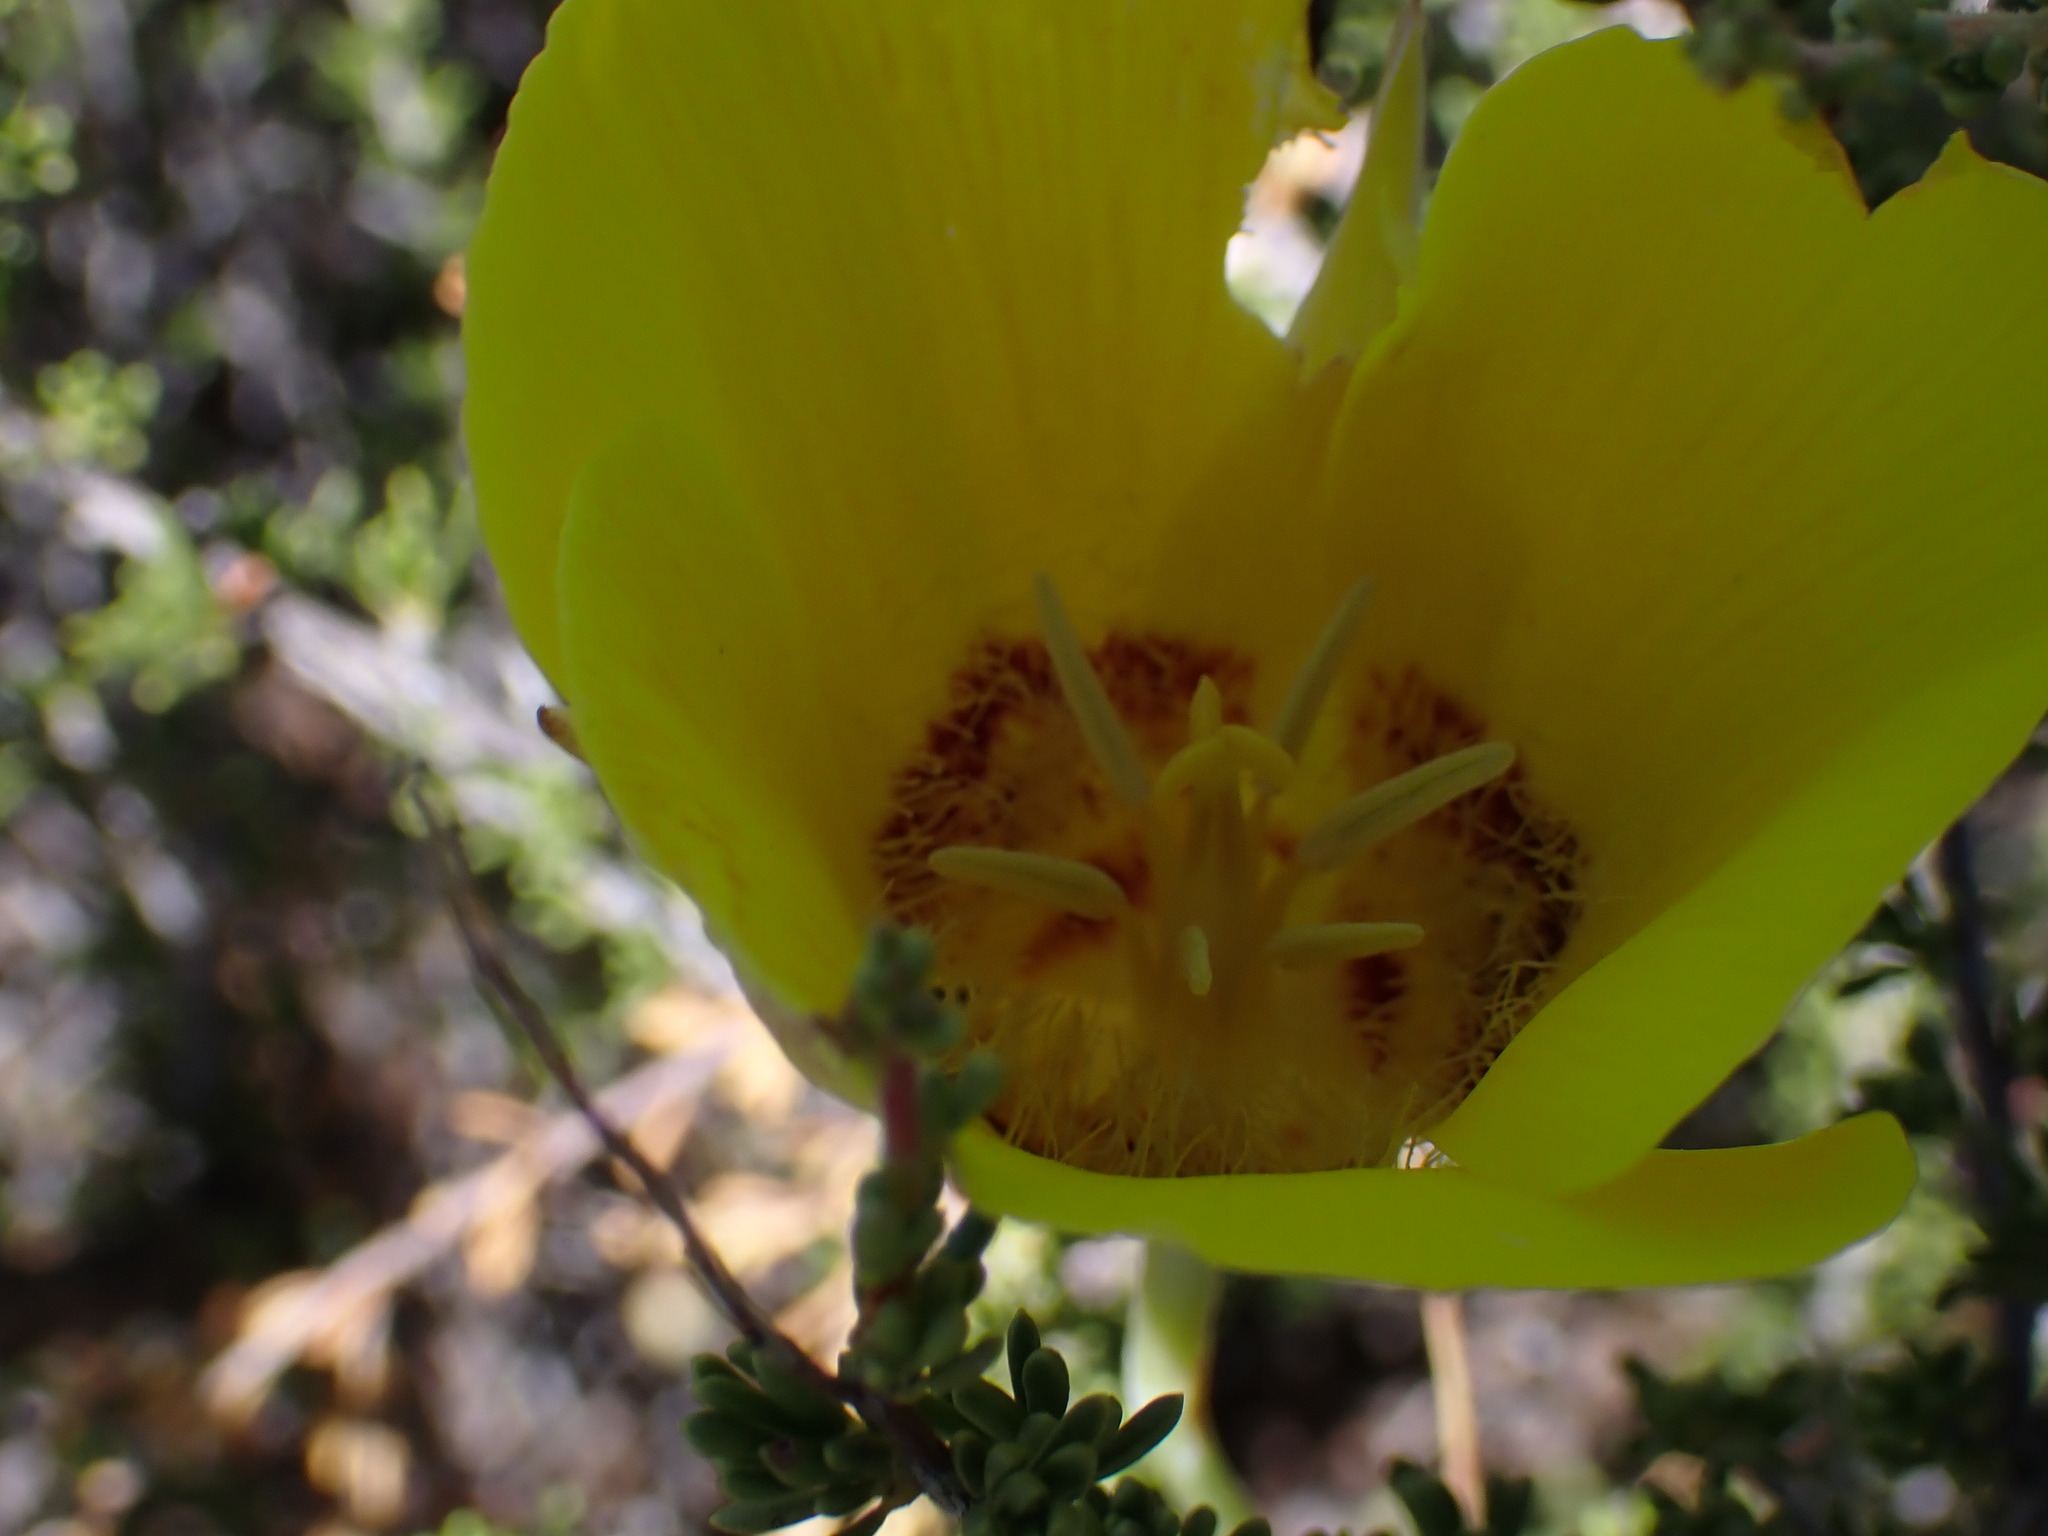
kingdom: Plantae
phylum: Tracheophyta
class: Liliopsida
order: Liliales
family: Liliaceae
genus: Calochortus
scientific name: Calochortus concolor
